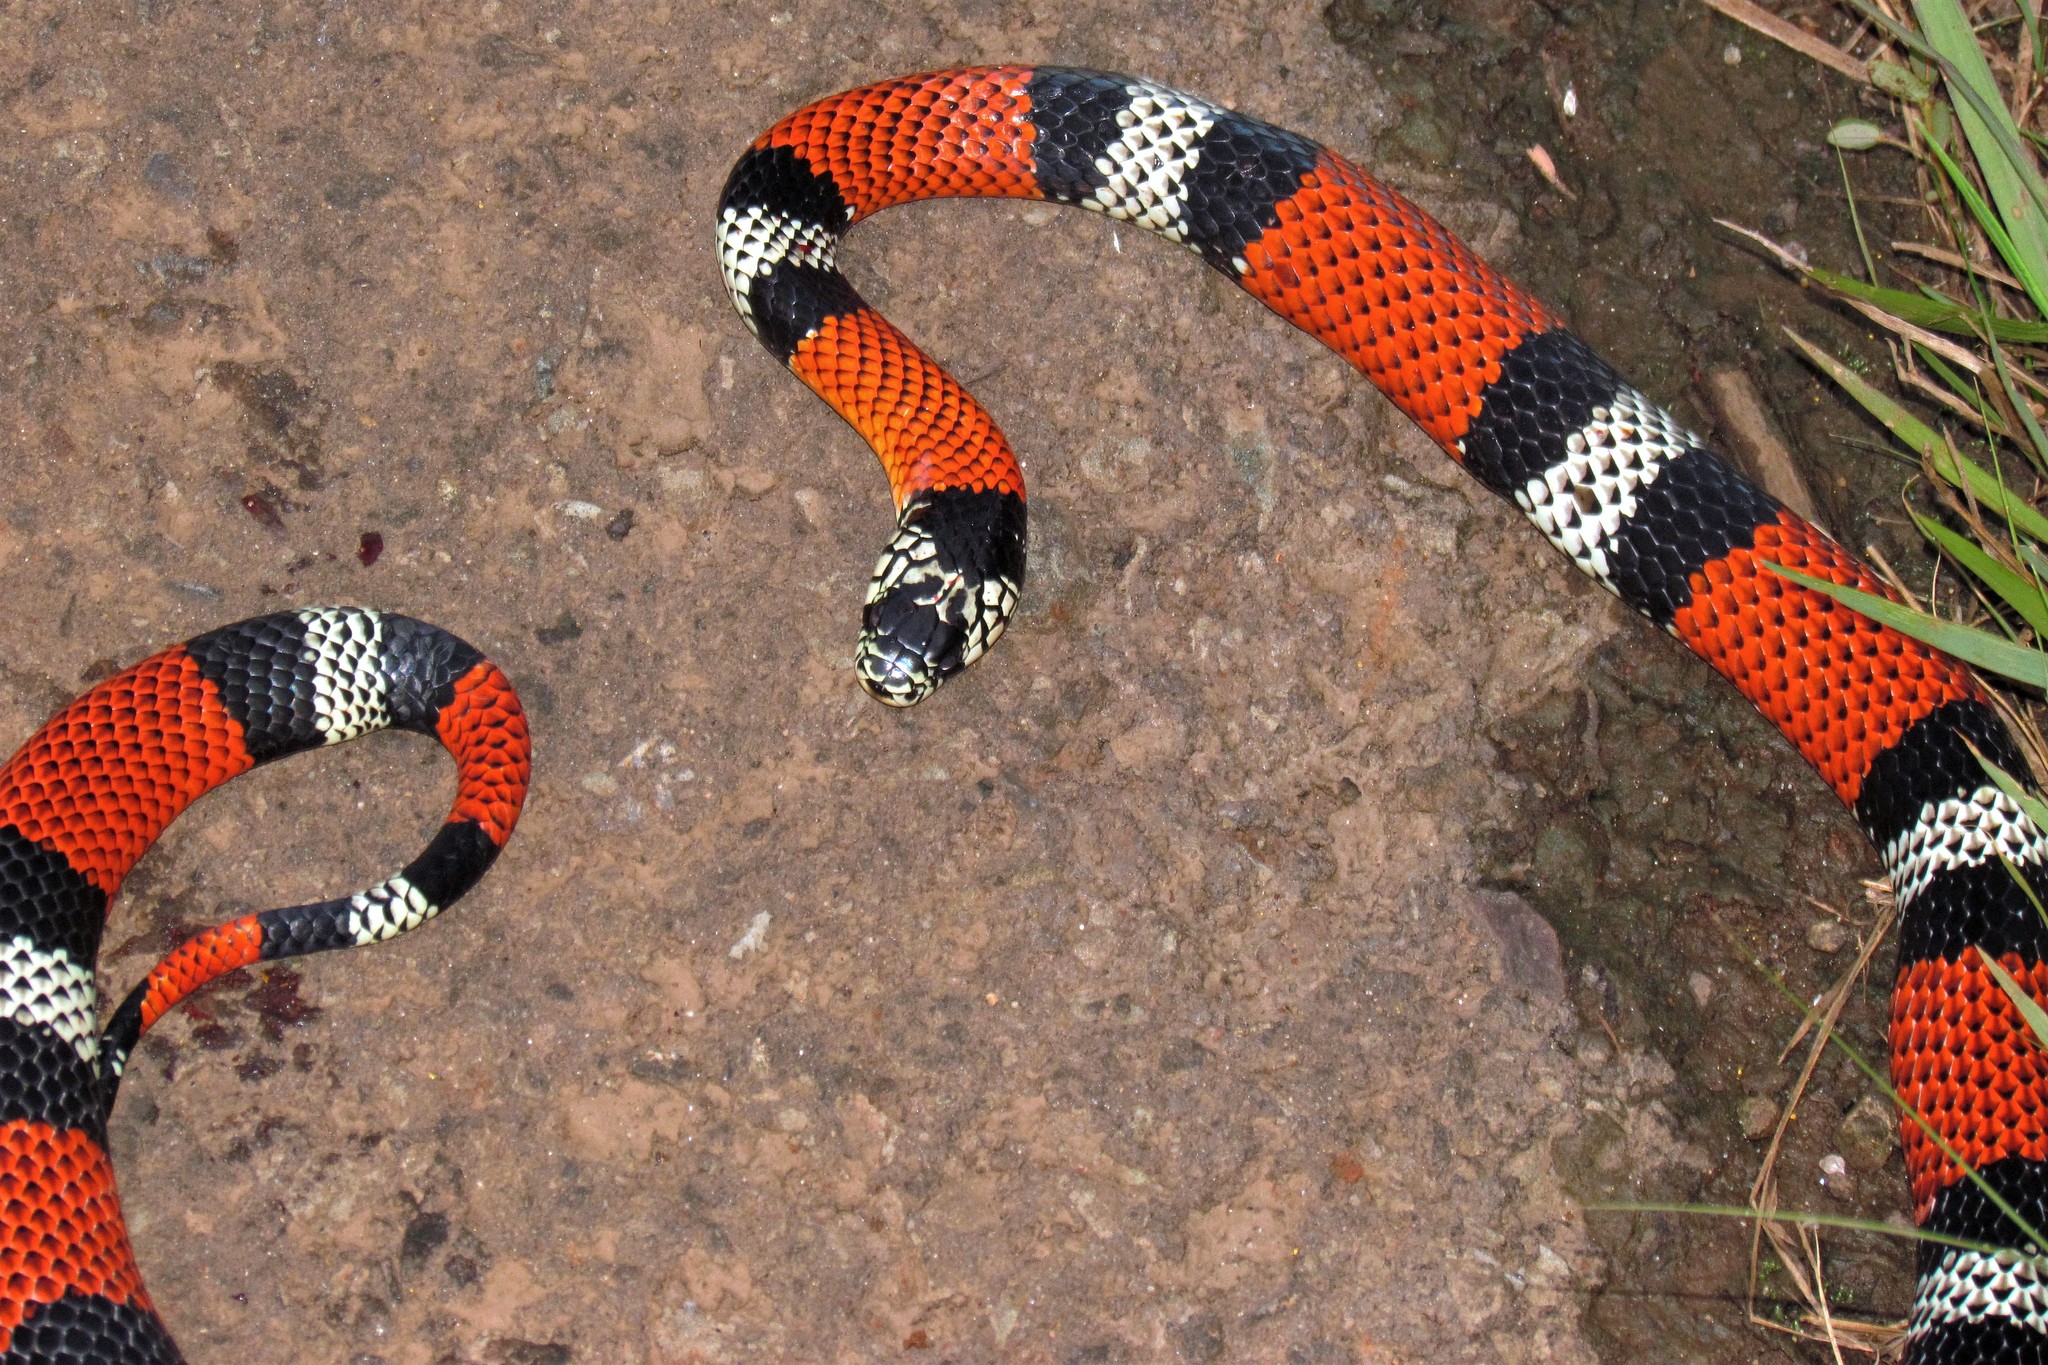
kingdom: Animalia
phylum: Chordata
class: Squamata
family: Colubridae
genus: Erythrolamprus
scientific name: Erythrolamprus aesculapii
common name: Aesculapian false coral snake
